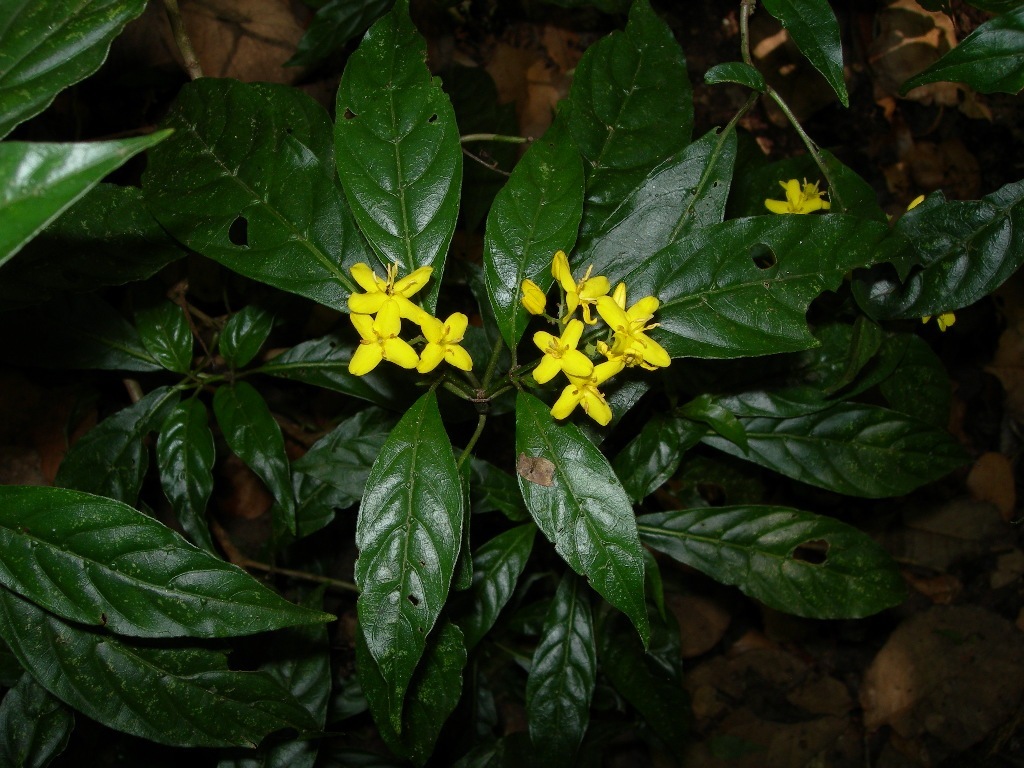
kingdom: Plantae
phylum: Tracheophyta
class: Magnoliopsida
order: Gentianales
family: Rubiaceae
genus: Deppea
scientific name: Deppea grandiflora
